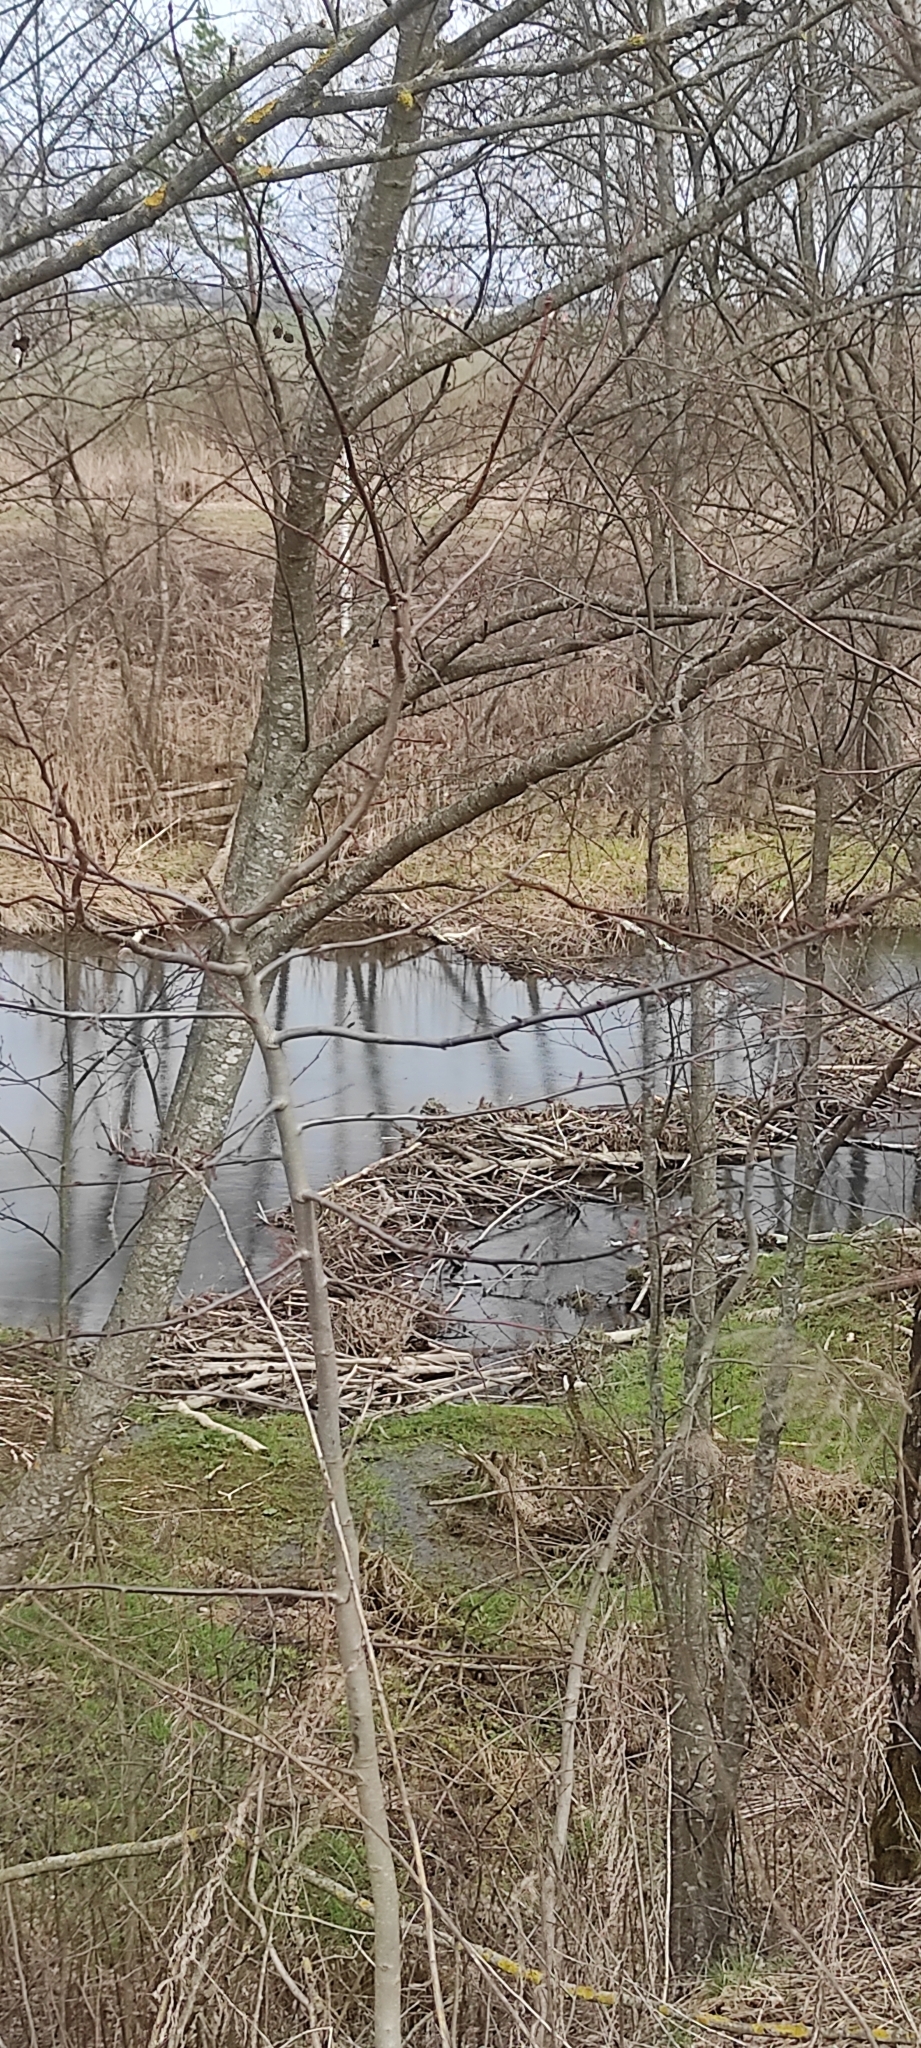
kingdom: Animalia
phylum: Chordata
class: Mammalia
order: Rodentia
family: Castoridae
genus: Castor
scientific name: Castor fiber
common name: Eurasian beaver
